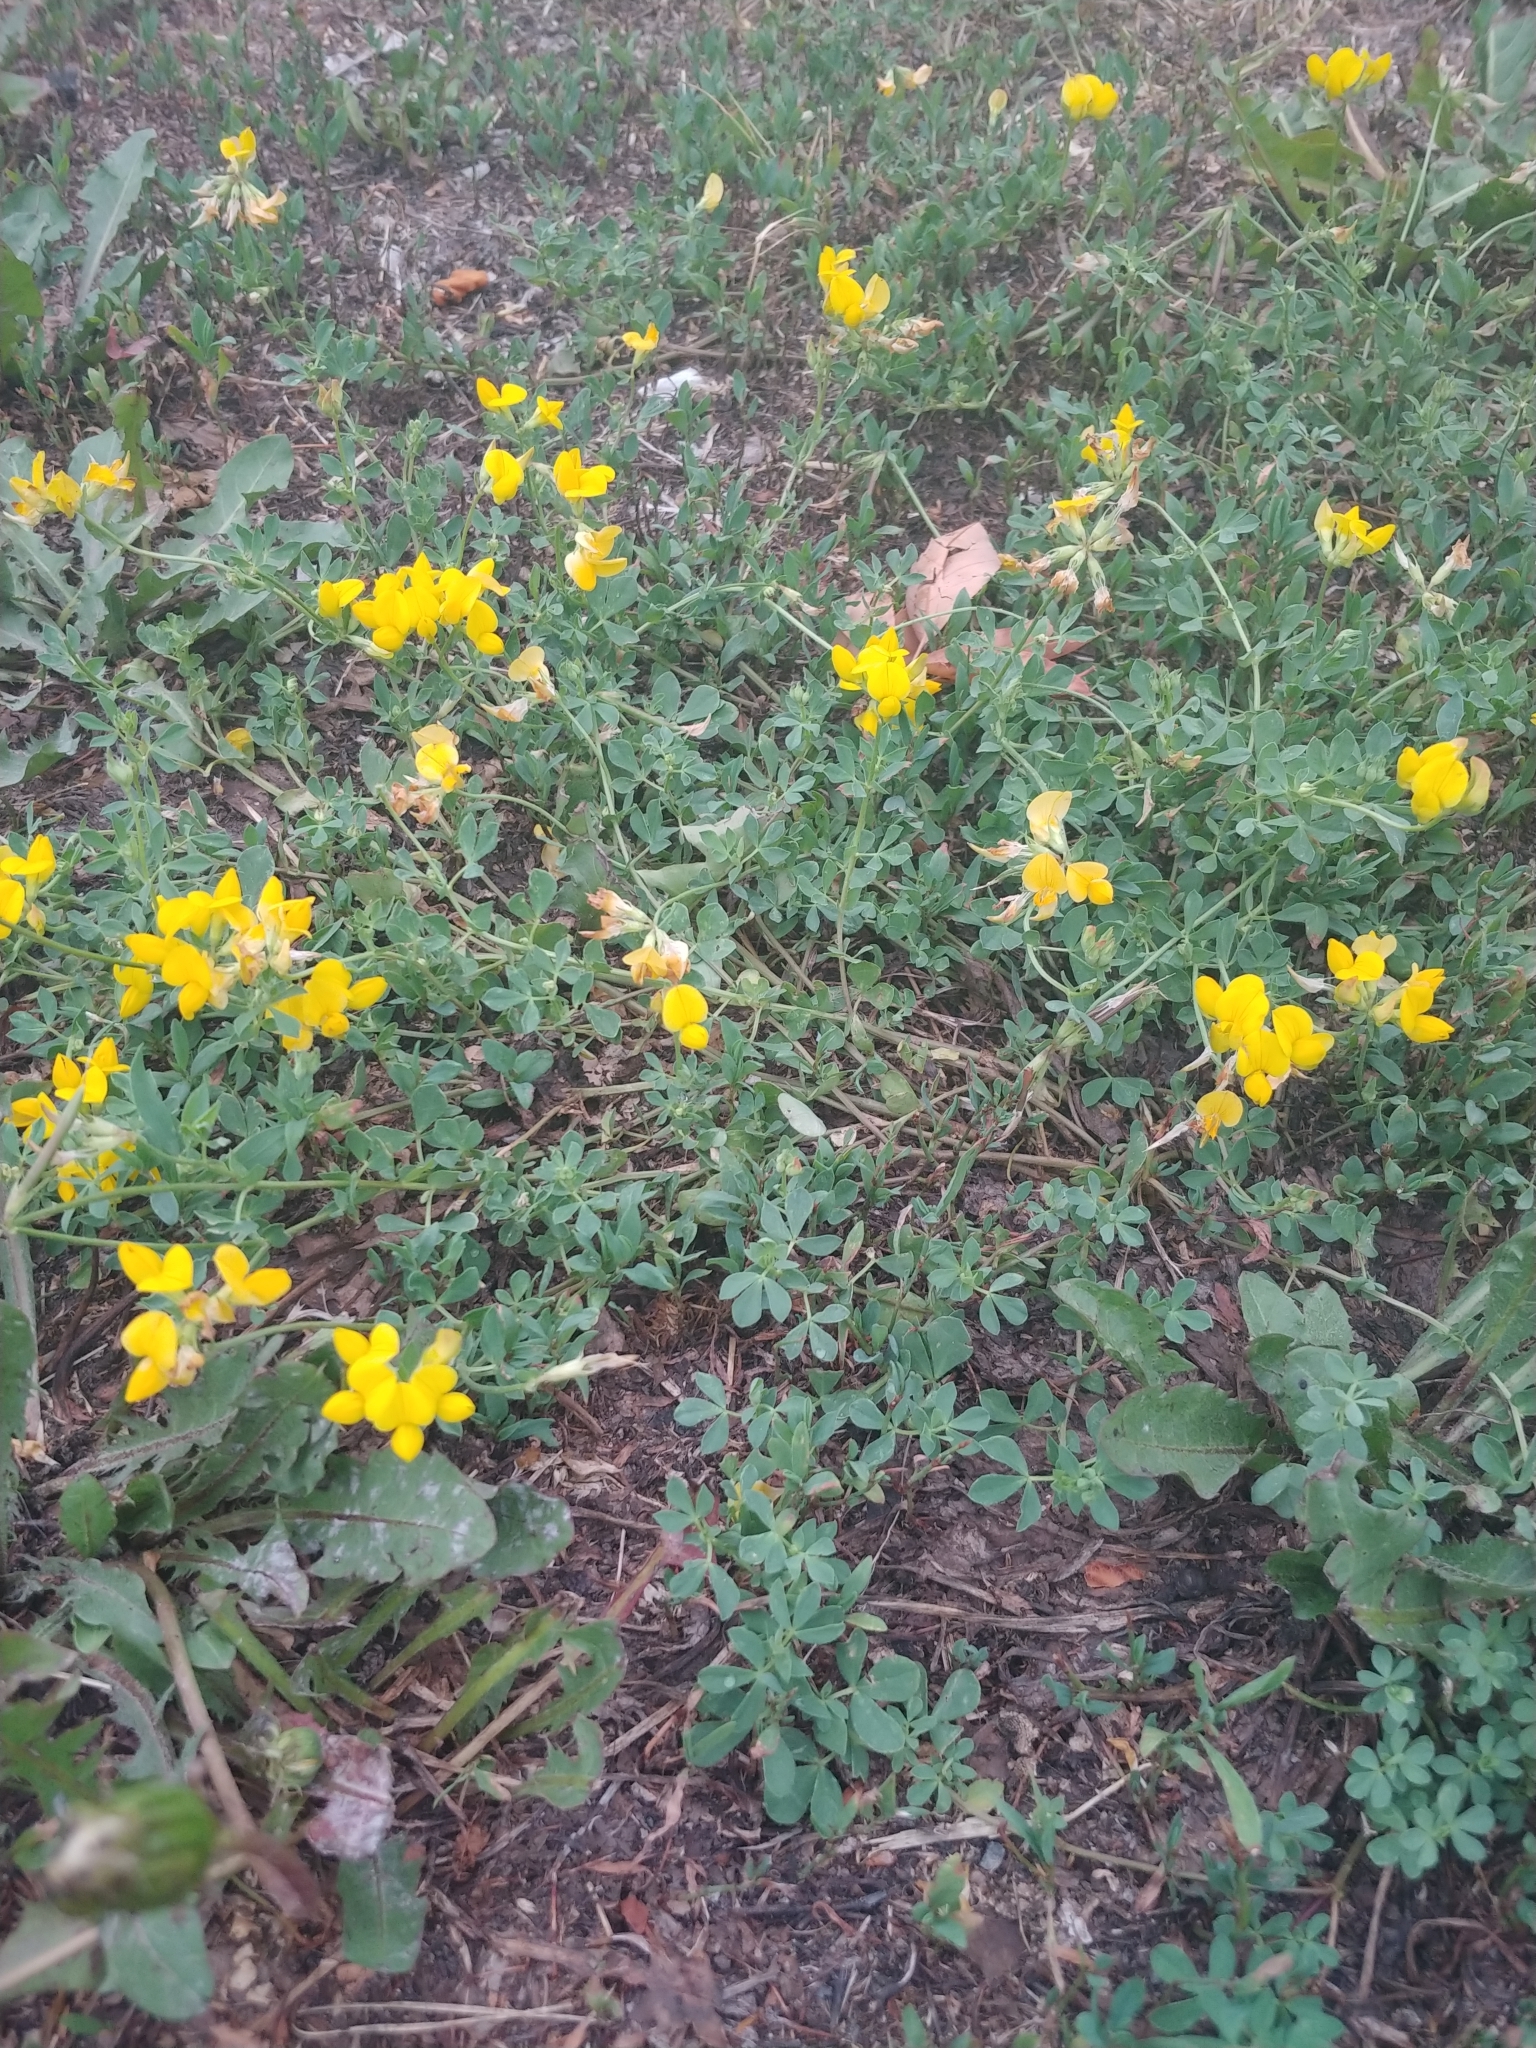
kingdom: Plantae
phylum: Tracheophyta
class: Magnoliopsida
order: Fabales
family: Fabaceae
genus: Lotus
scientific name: Lotus corniculatus
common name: Common bird's-foot-trefoil
